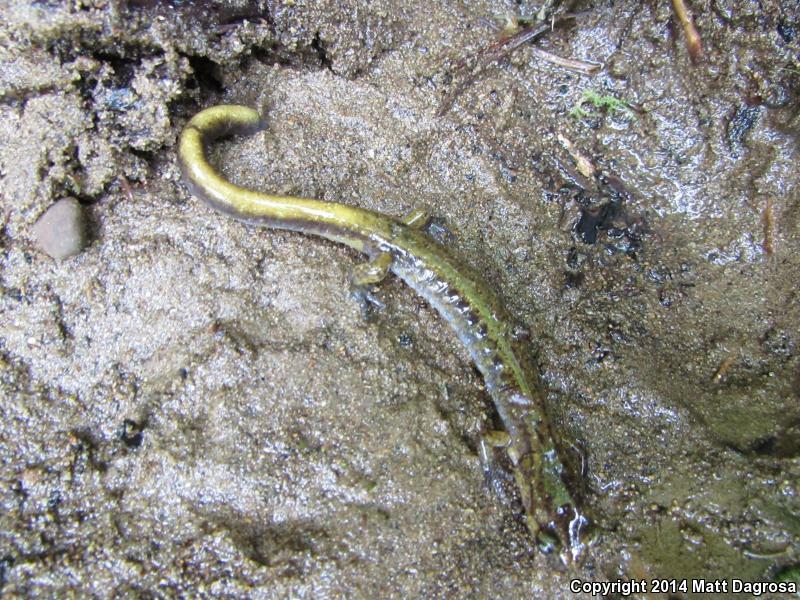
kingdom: Animalia
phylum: Chordata
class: Amphibia
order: Caudata
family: Plethodontidae
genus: Plethodon
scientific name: Plethodon dunni
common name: Dunn's salamander
